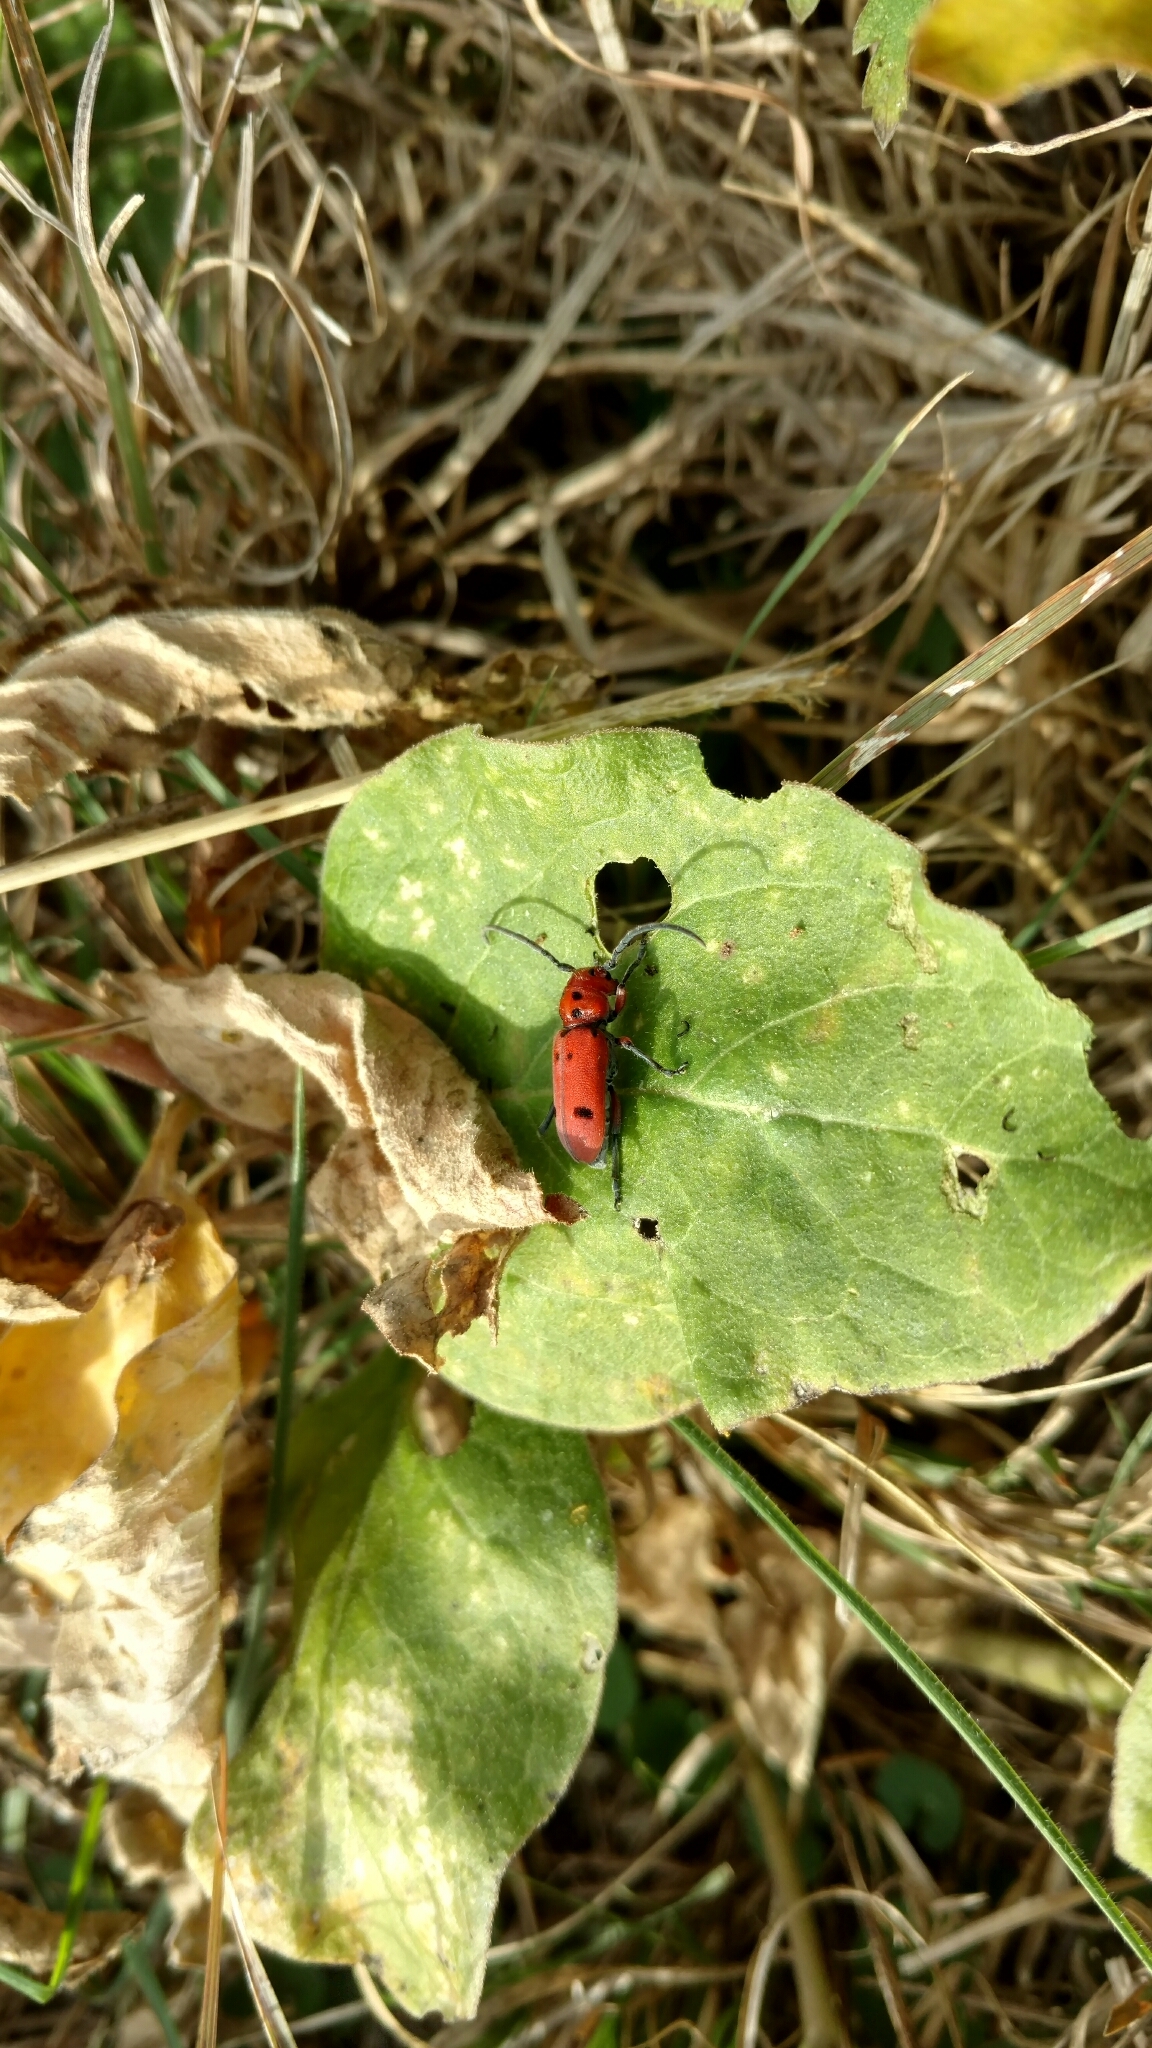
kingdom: Animalia
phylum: Arthropoda
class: Insecta
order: Coleoptera
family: Cerambycidae
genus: Tetraopes
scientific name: Tetraopes texanus
